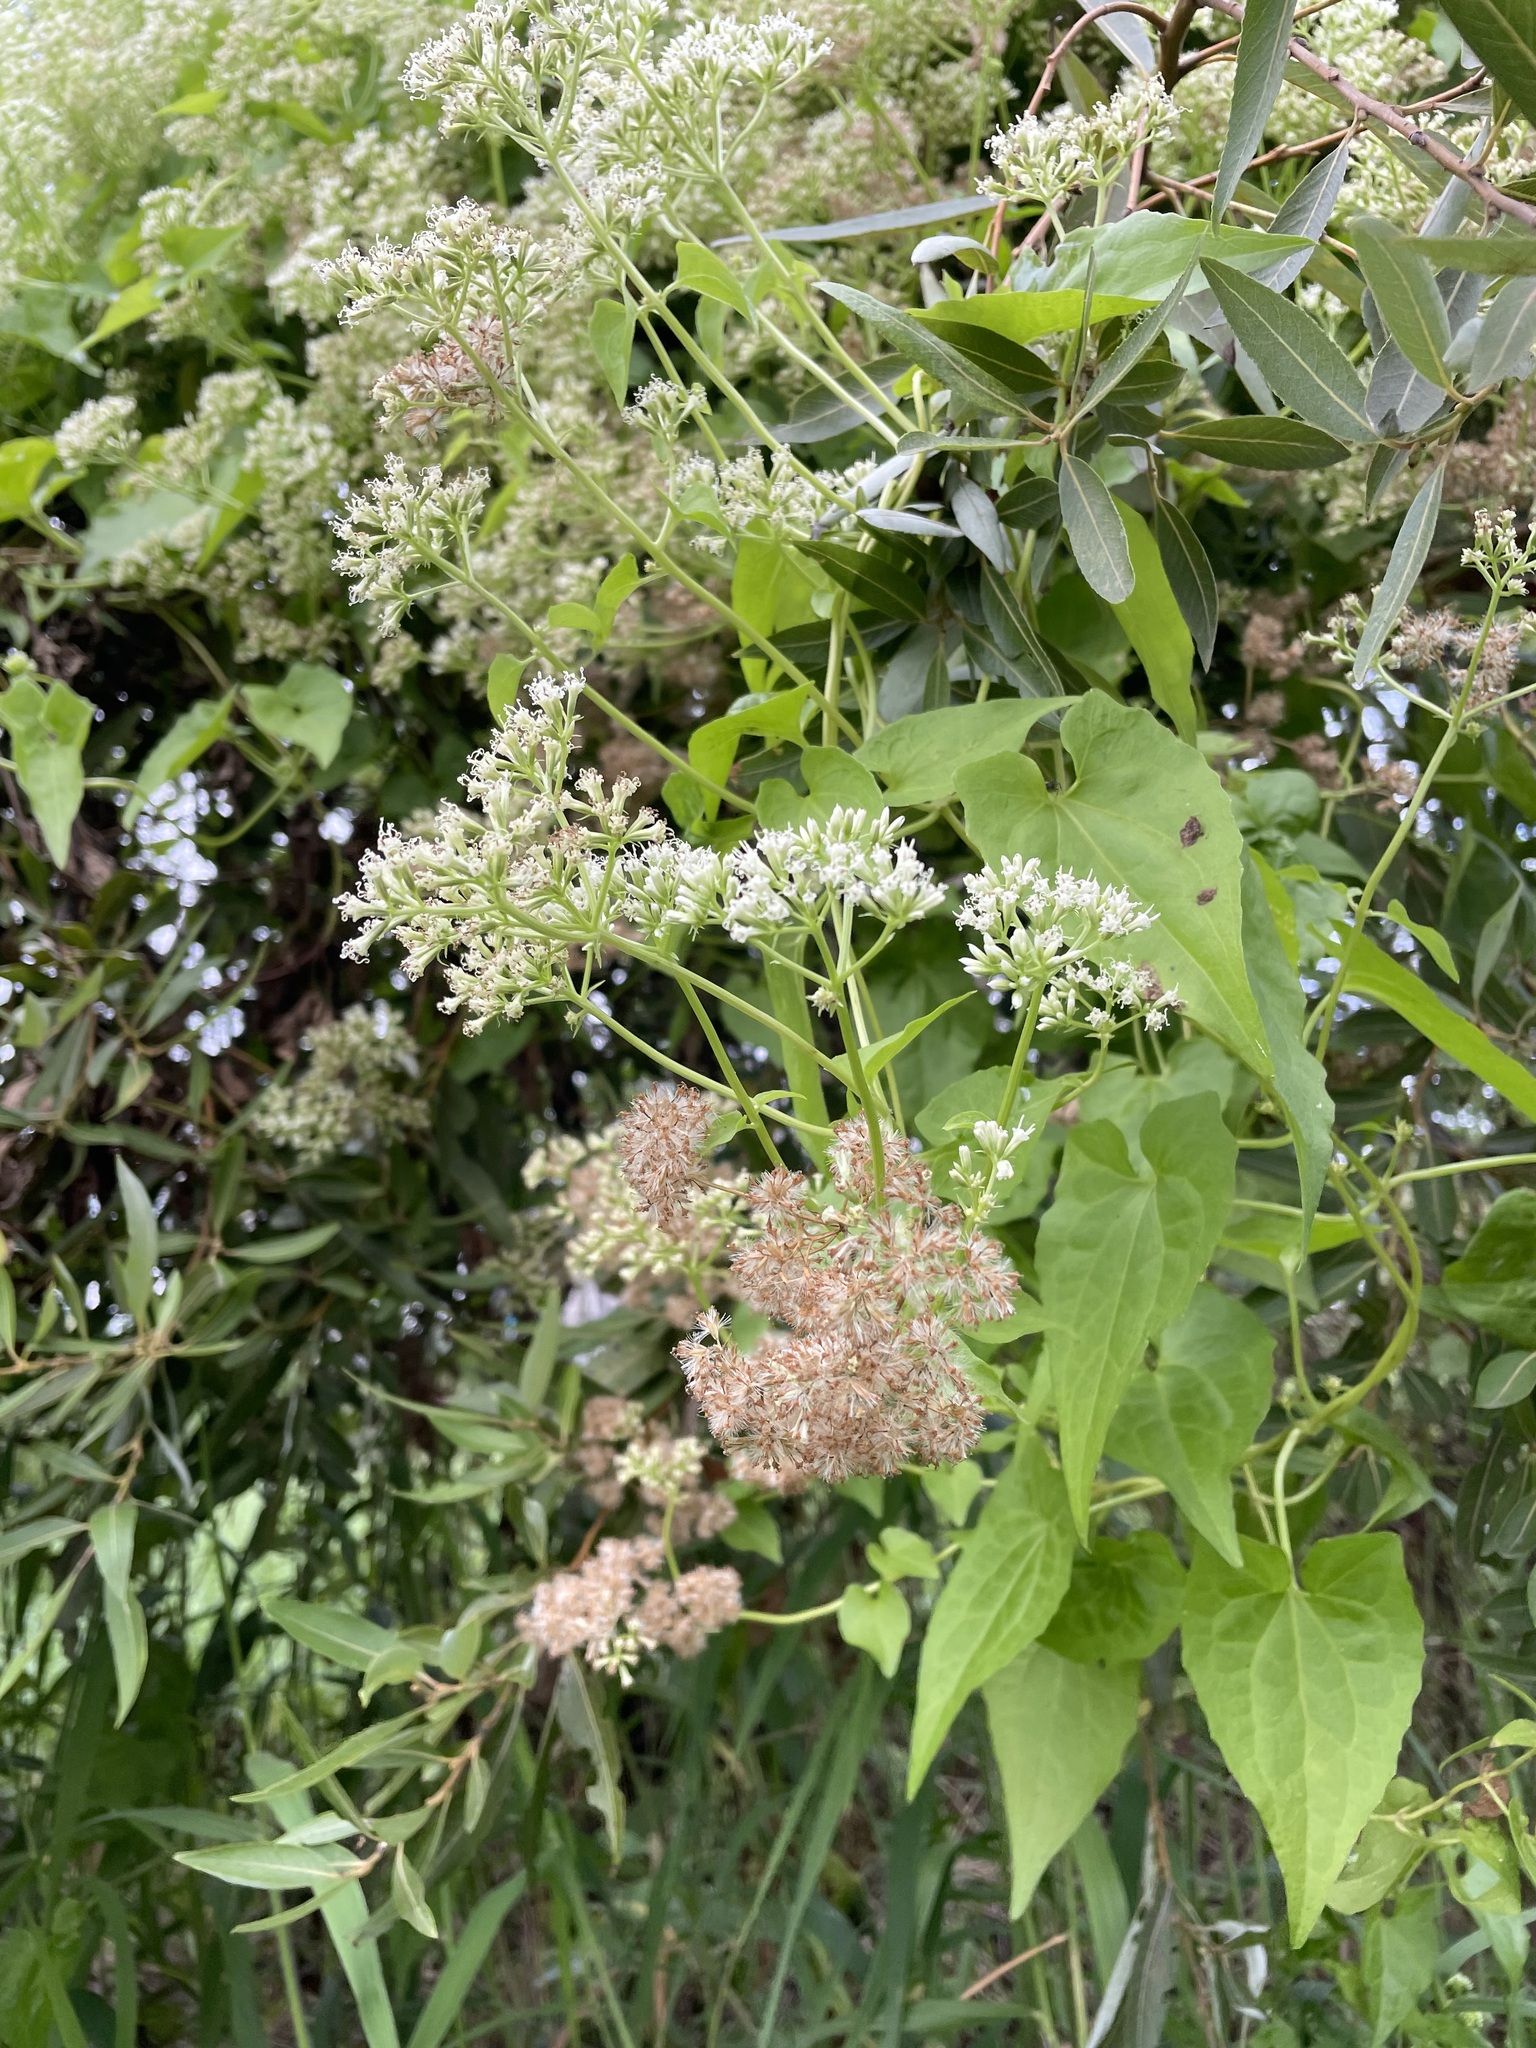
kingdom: Plantae
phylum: Tracheophyta
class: Magnoliopsida
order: Asterales
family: Asteraceae
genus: Mikania
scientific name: Mikania micrantha
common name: Mile-a-minute
